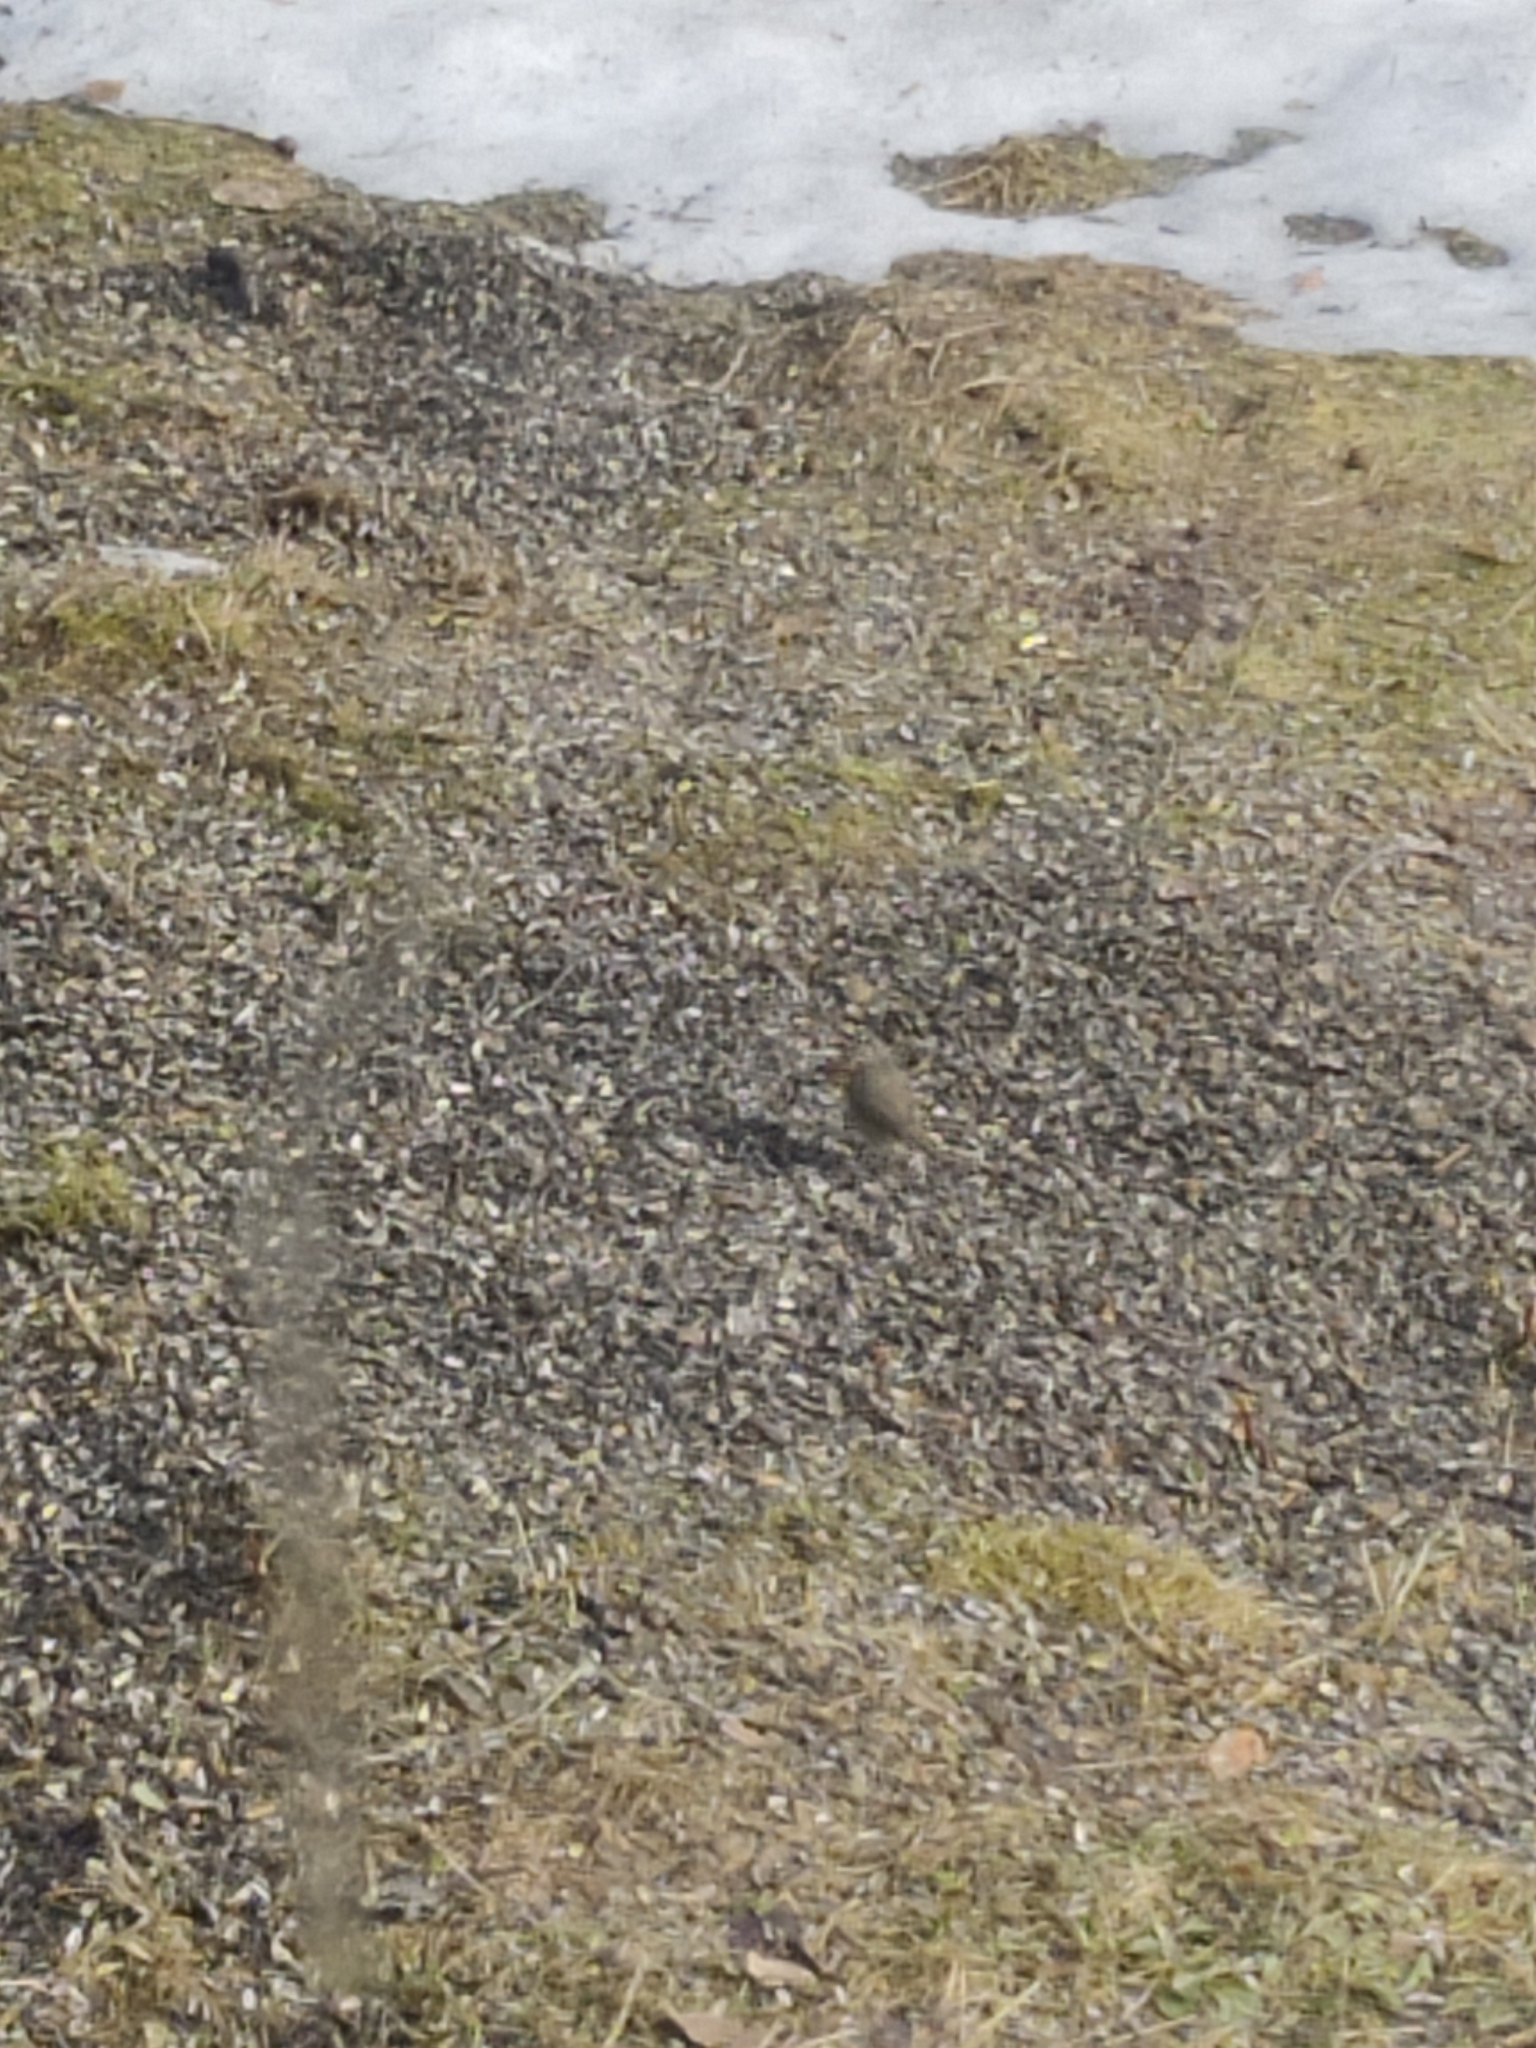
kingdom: Animalia
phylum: Chordata
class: Aves
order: Passeriformes
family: Muscicapidae
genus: Erithacus
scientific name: Erithacus rubecula
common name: European robin
